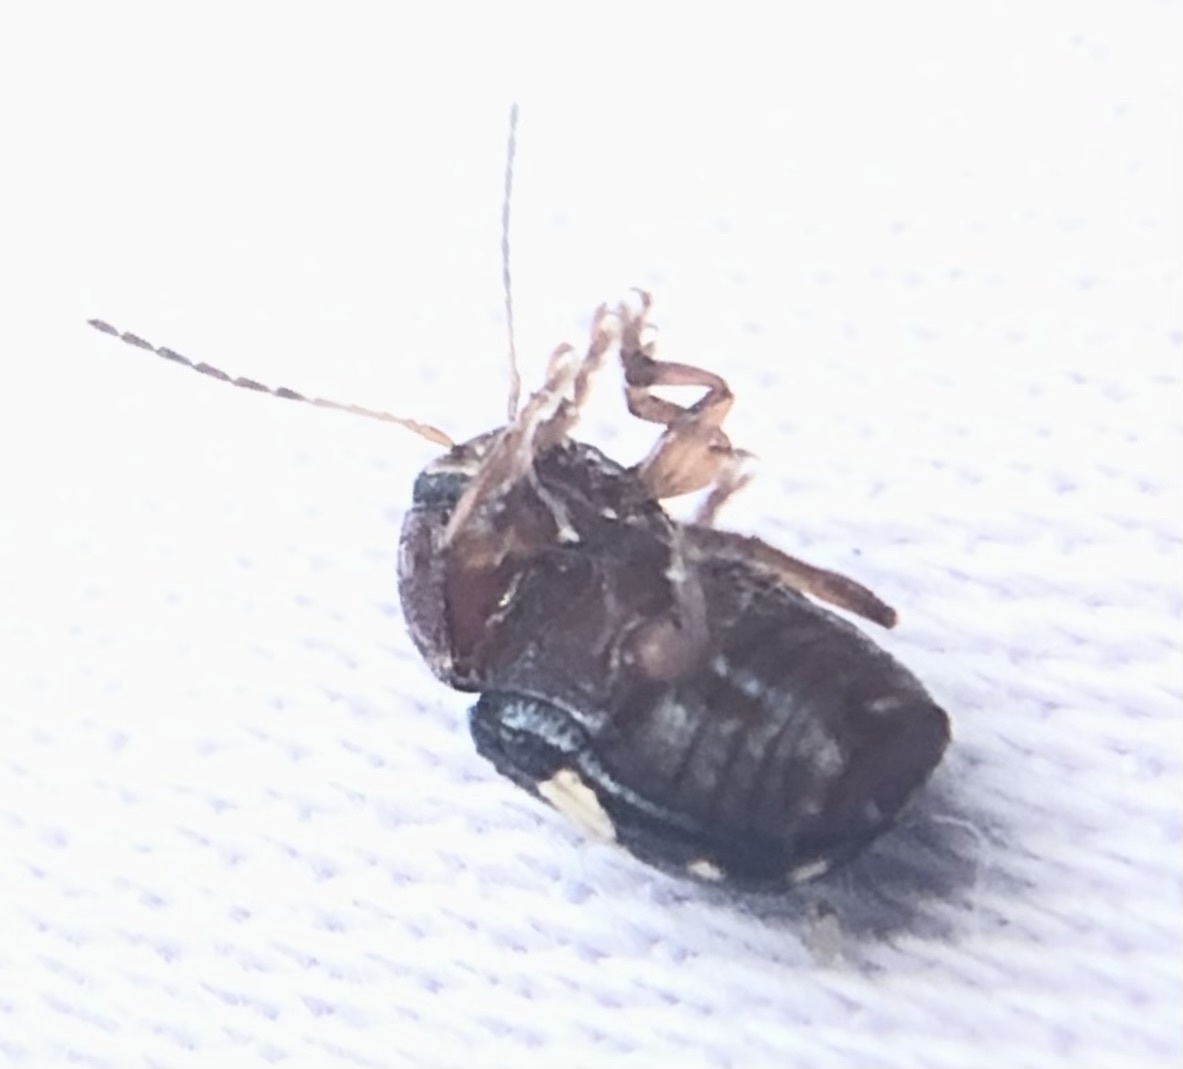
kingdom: Animalia
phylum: Arthropoda
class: Insecta
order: Coleoptera
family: Chrysomelidae
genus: Cryptocephalus
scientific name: Cryptocephalus badius
